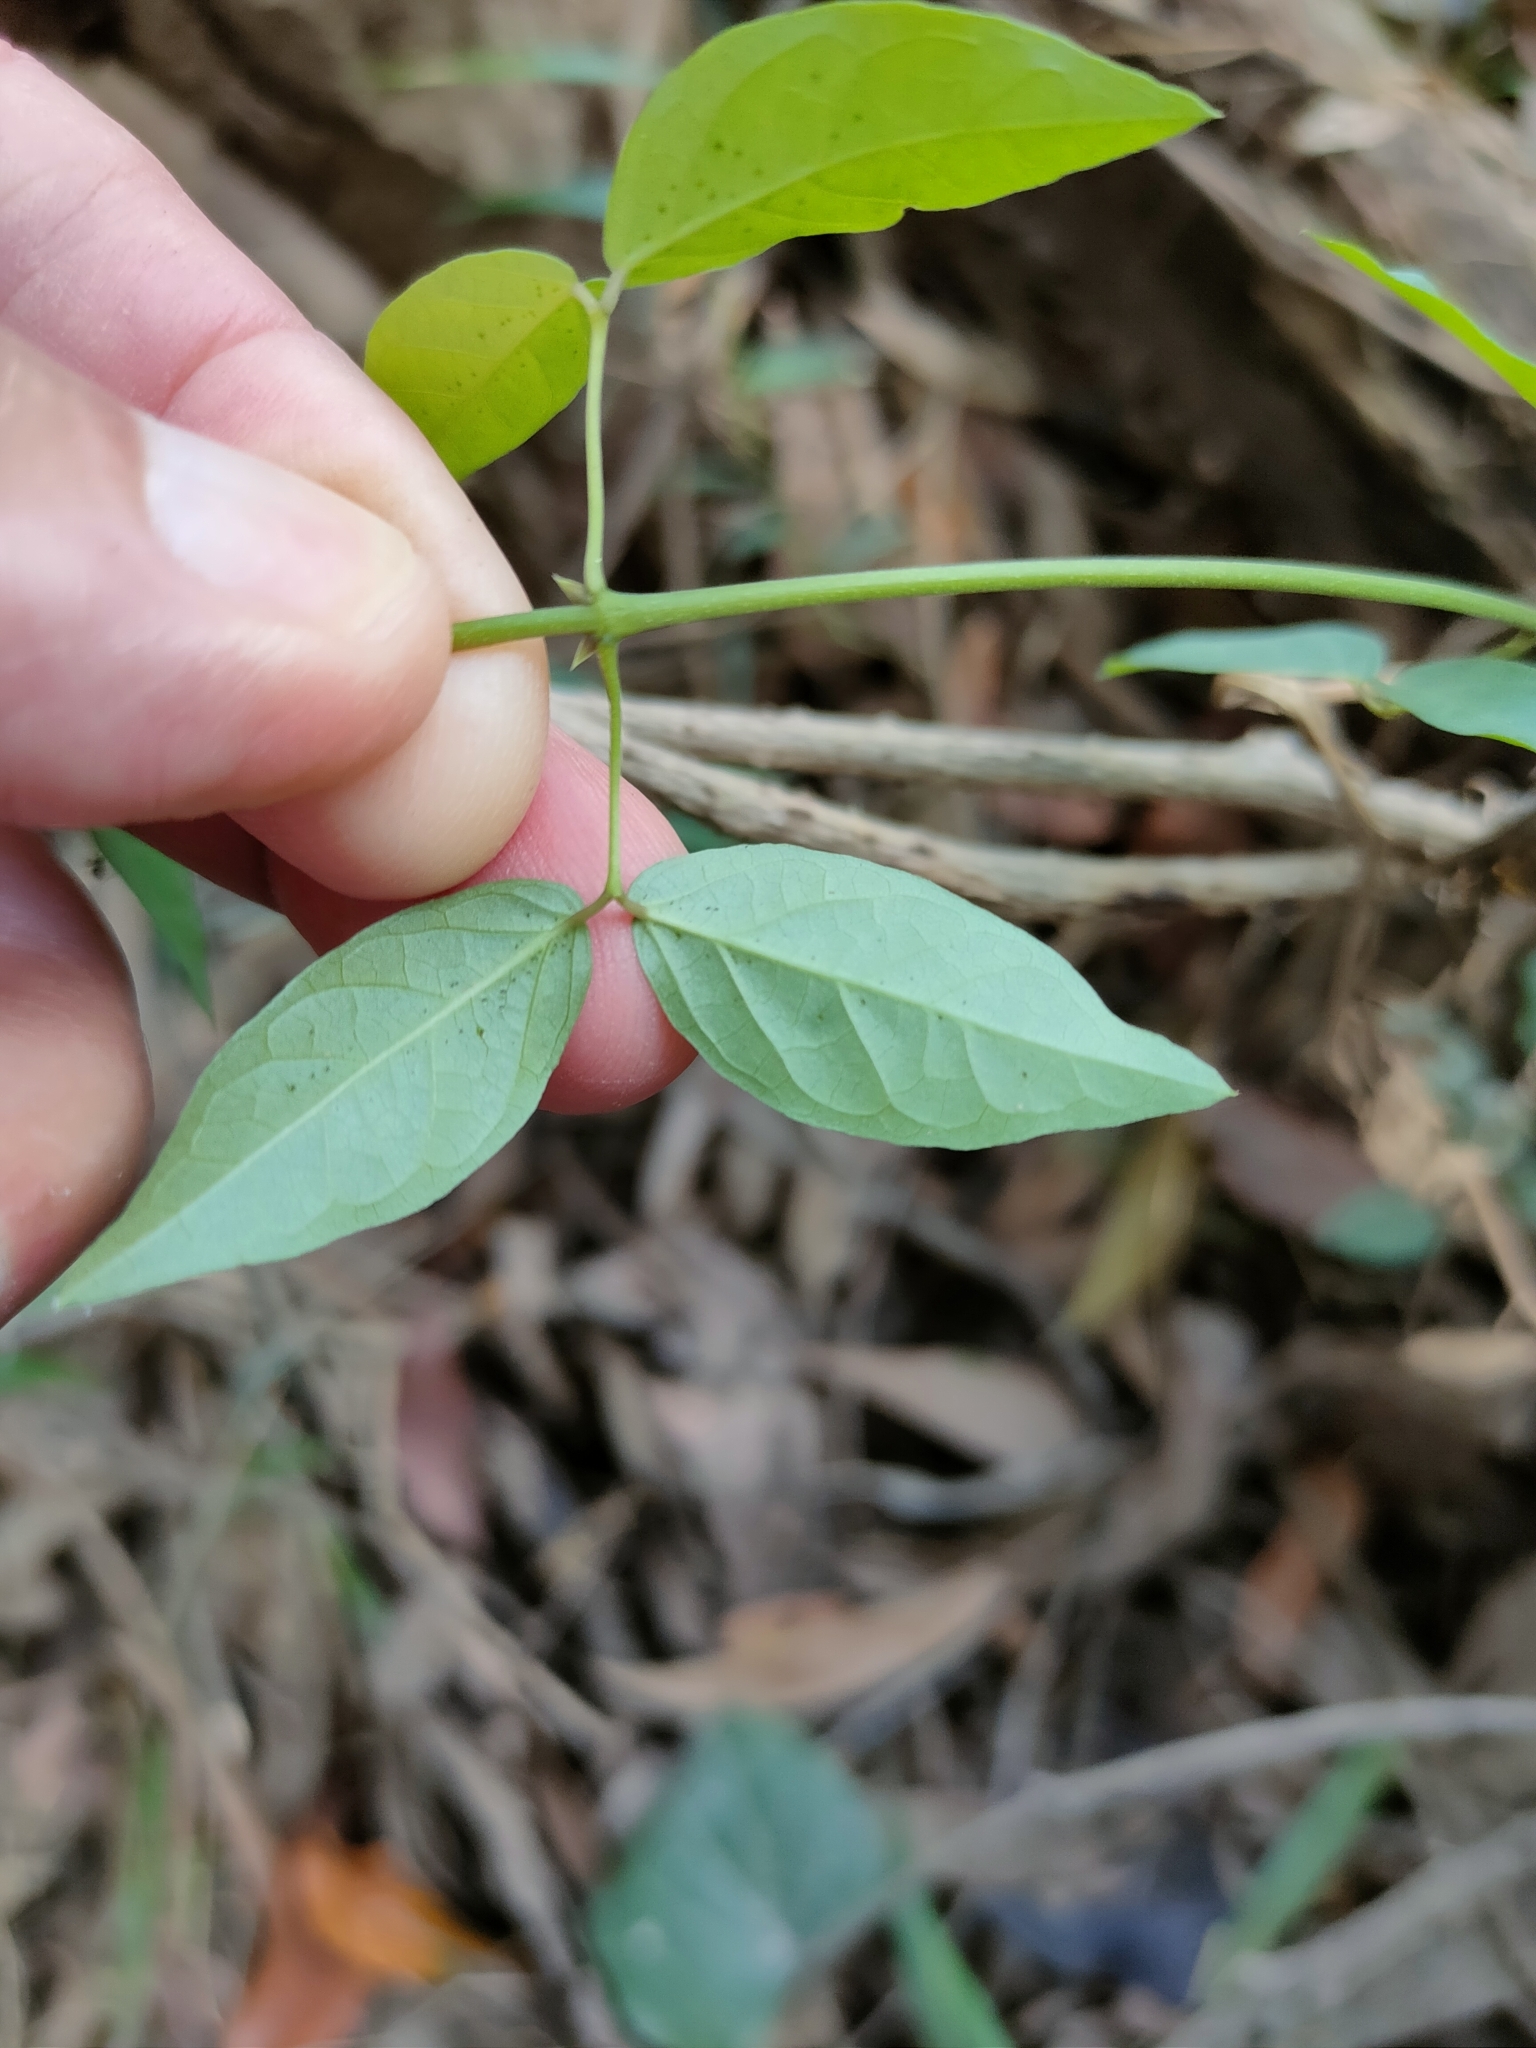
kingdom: Plantae
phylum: Tracheophyta
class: Magnoliopsida
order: Lamiales
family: Bignoniaceae
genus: Dolichandra
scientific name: Dolichandra unguis-cati
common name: Catclaw vine
